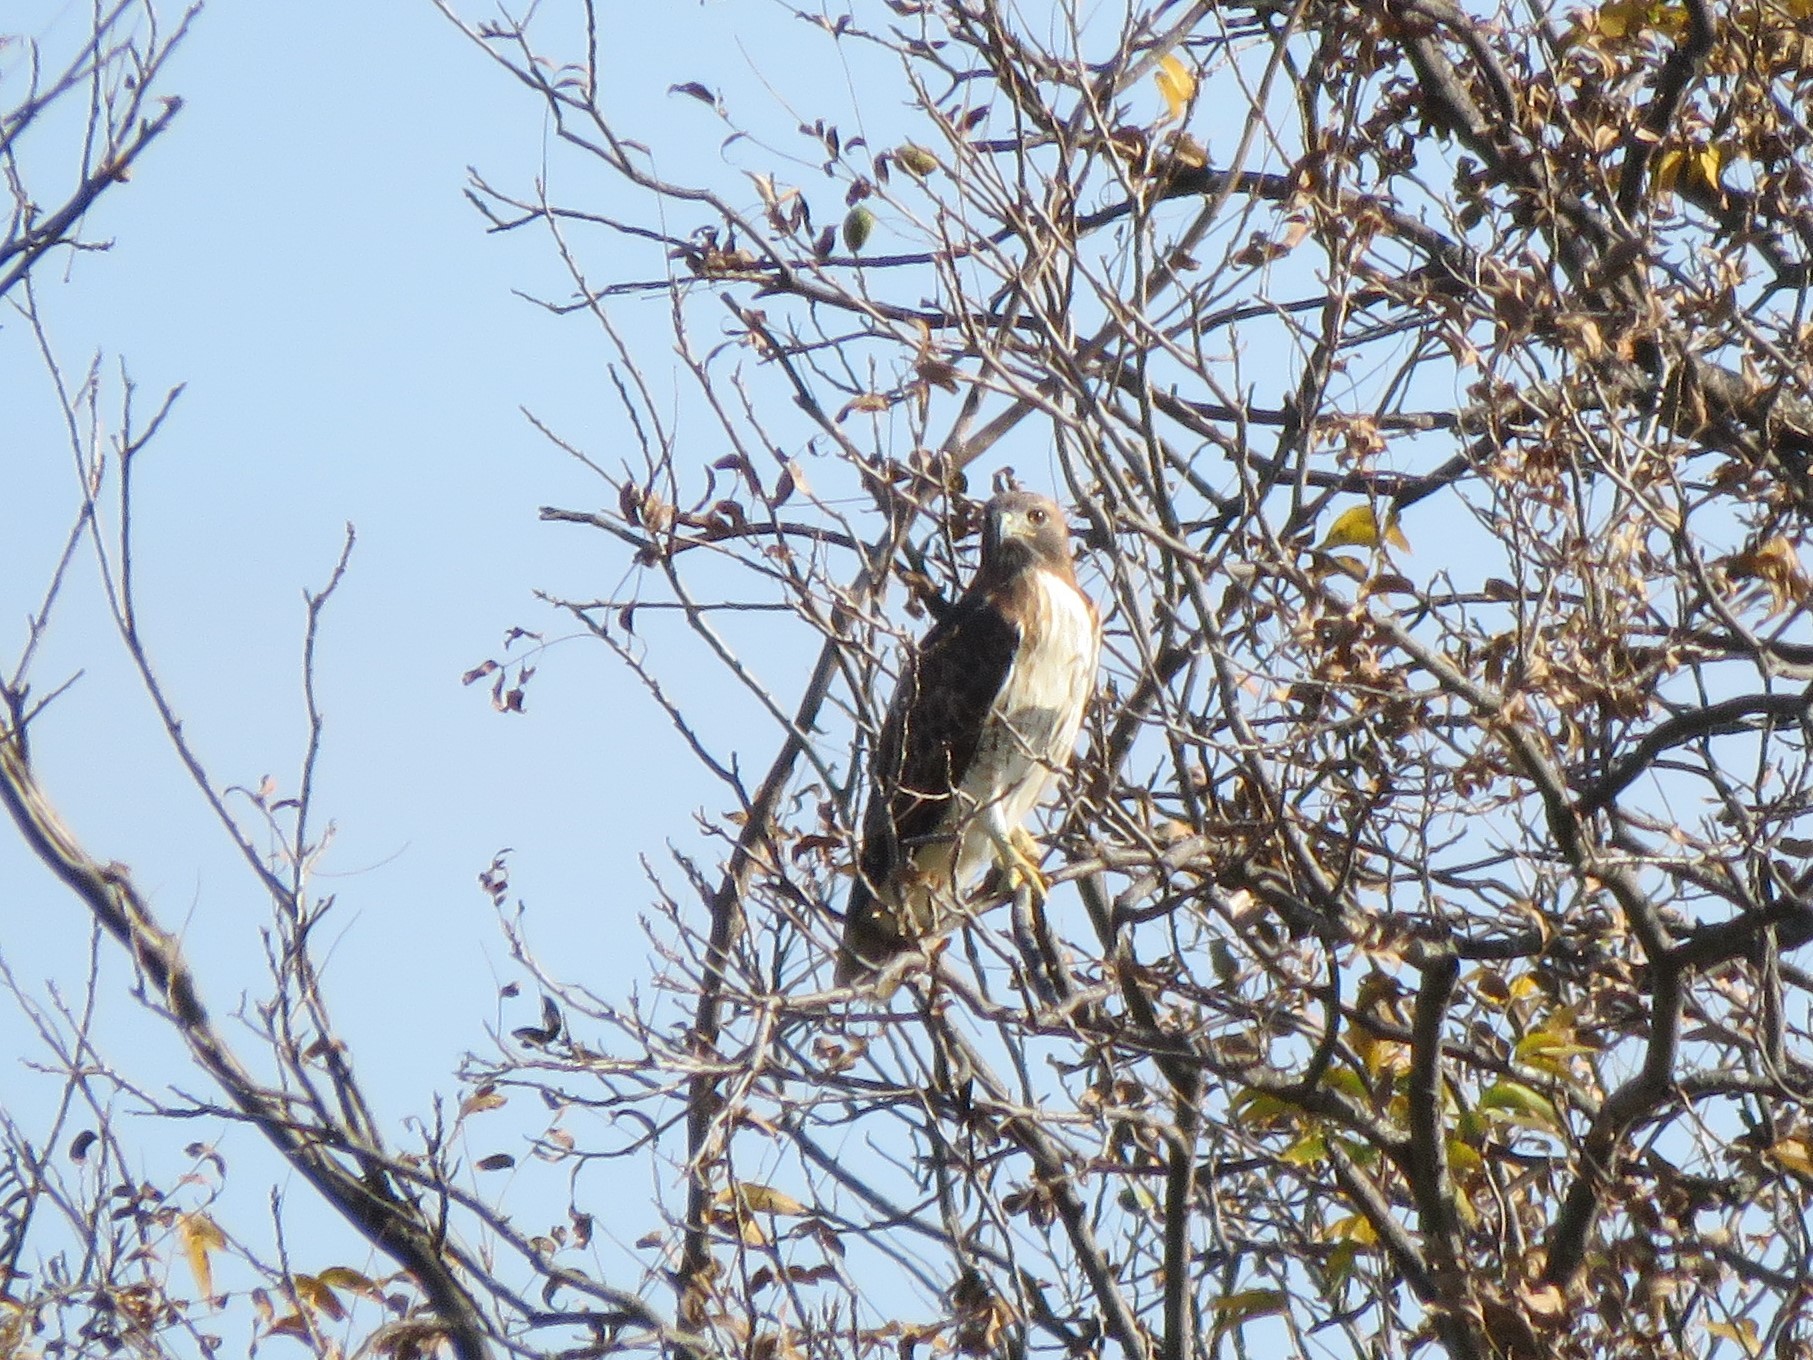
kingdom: Animalia
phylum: Chordata
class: Aves
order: Accipitriformes
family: Accipitridae
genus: Buteo
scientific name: Buteo jamaicensis
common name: Red-tailed hawk
